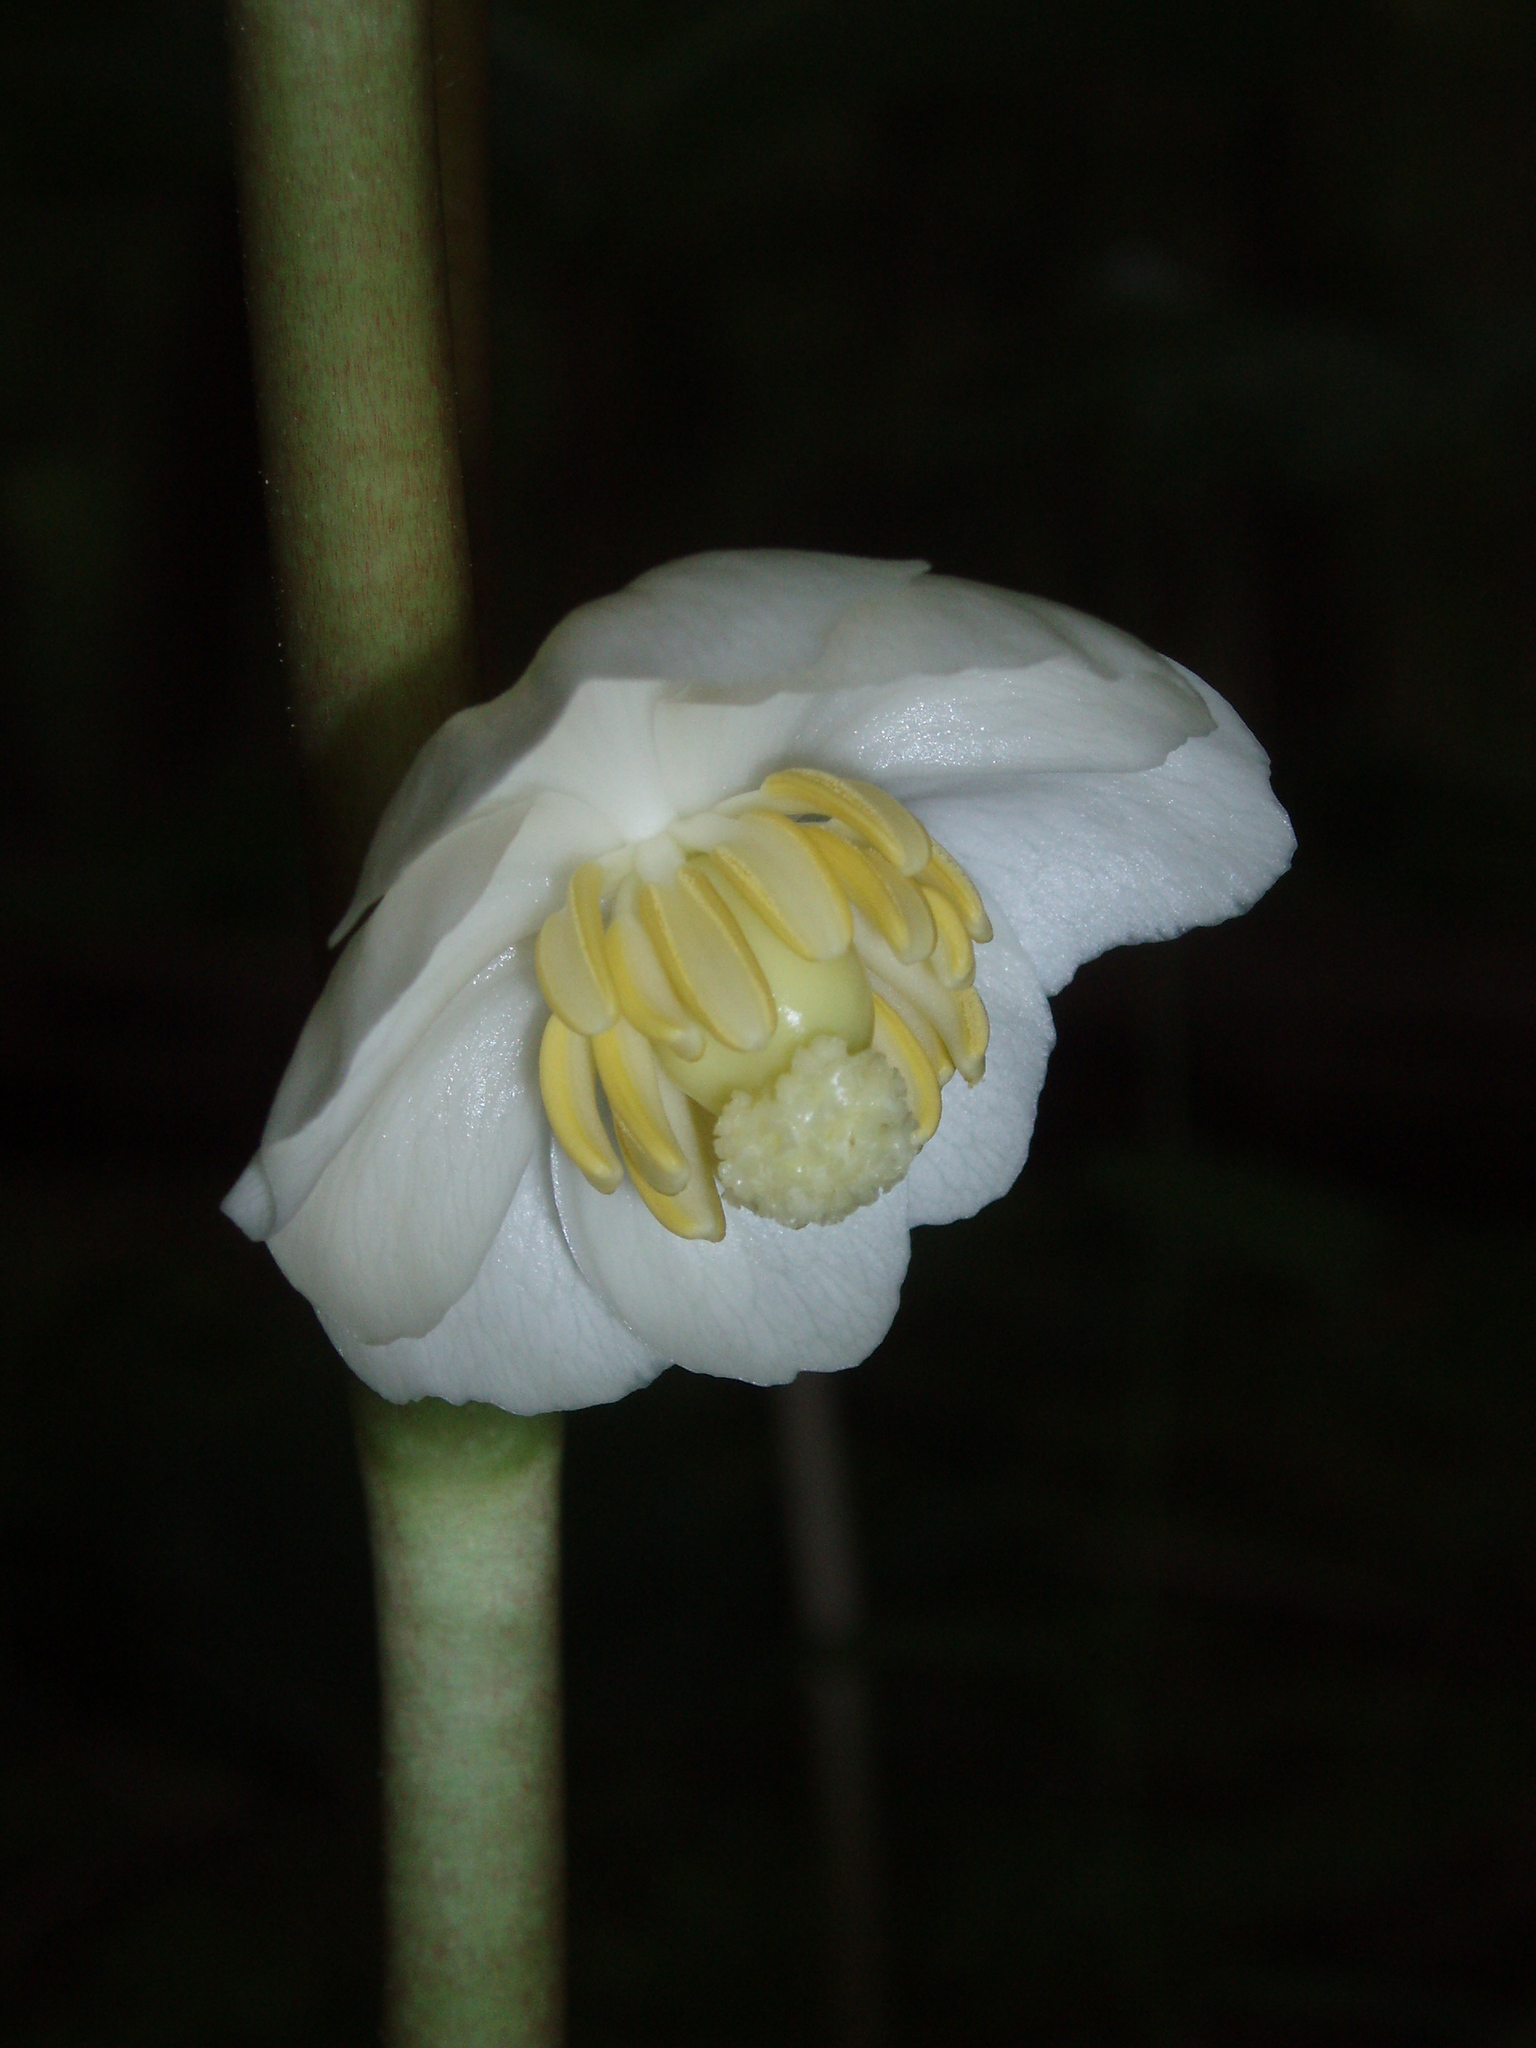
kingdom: Plantae
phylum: Tracheophyta
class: Magnoliopsida
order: Ranunculales
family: Berberidaceae
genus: Podophyllum
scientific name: Podophyllum peltatum
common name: Wild mandrake
